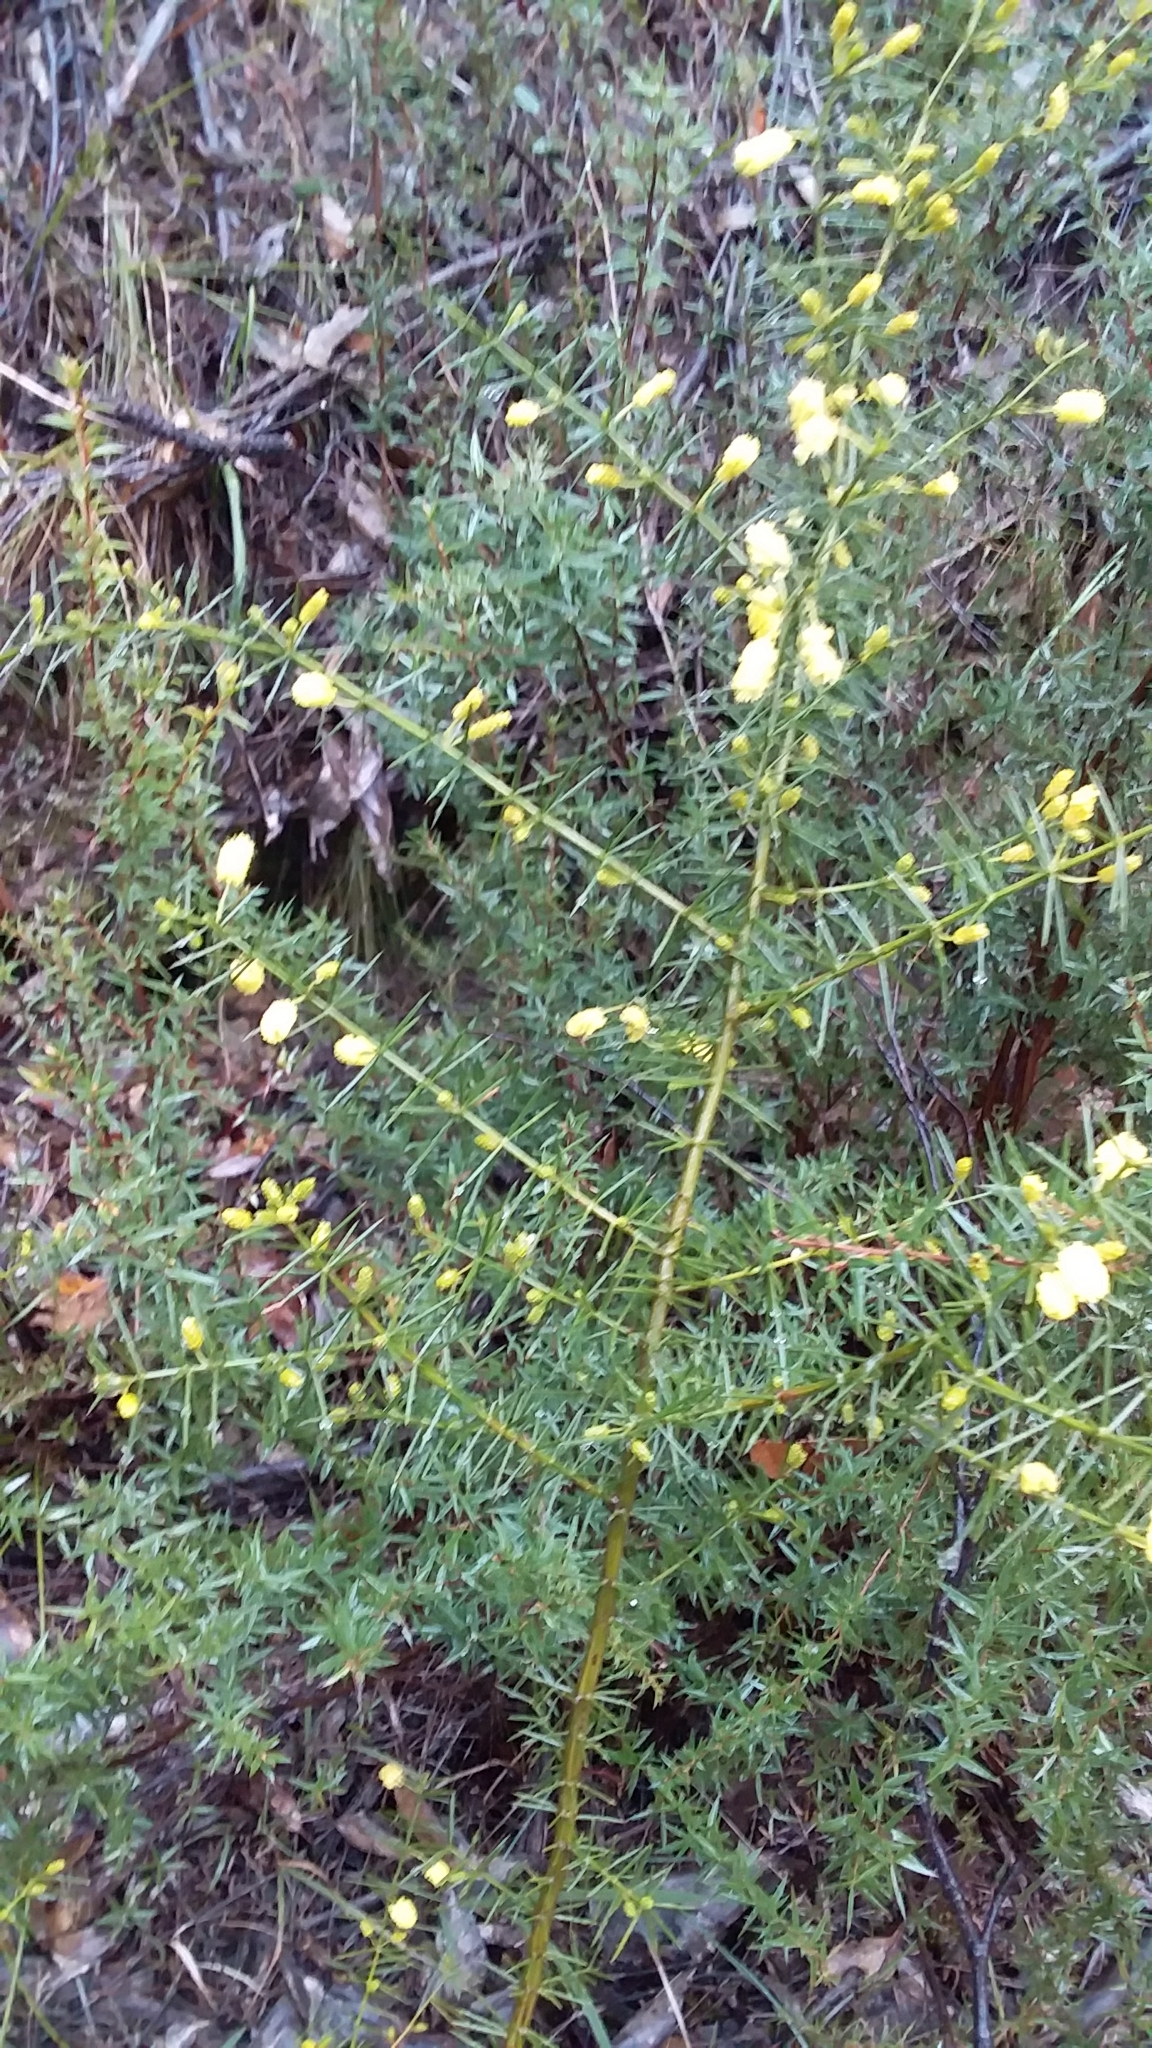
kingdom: Plantae
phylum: Tracheophyta
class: Magnoliopsida
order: Fabales
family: Fabaceae
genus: Acacia
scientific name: Acacia verticillata
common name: Prickly moses
